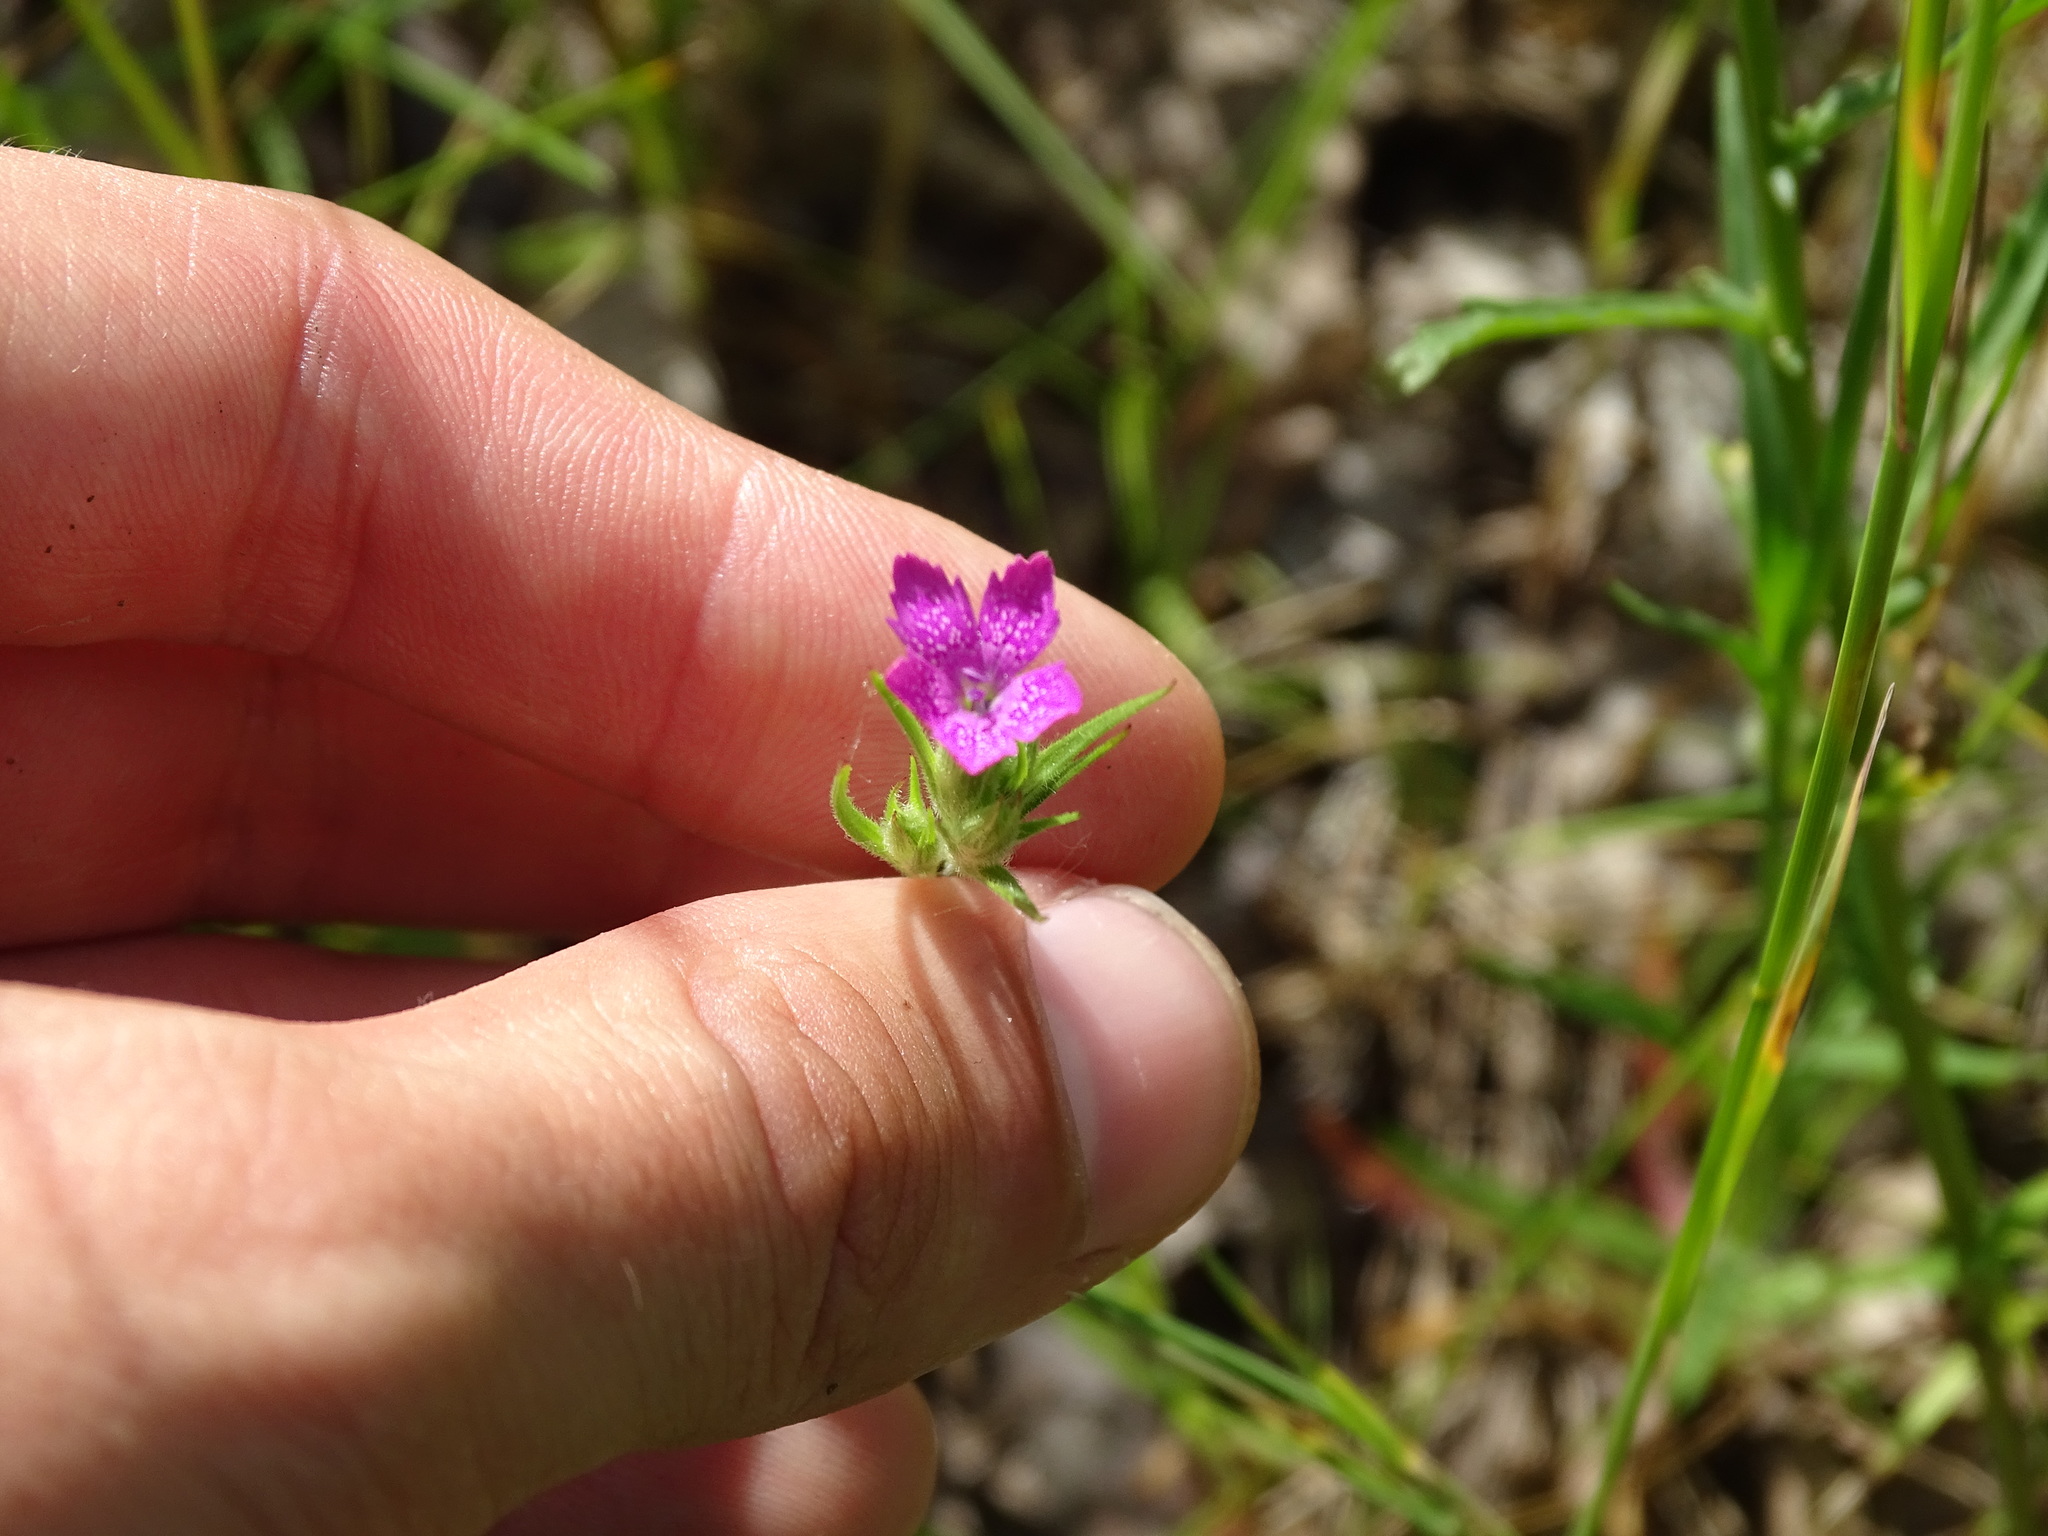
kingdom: Plantae
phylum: Tracheophyta
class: Magnoliopsida
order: Caryophyllales
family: Caryophyllaceae
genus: Dianthus
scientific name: Dianthus armeria
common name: Deptford pink
